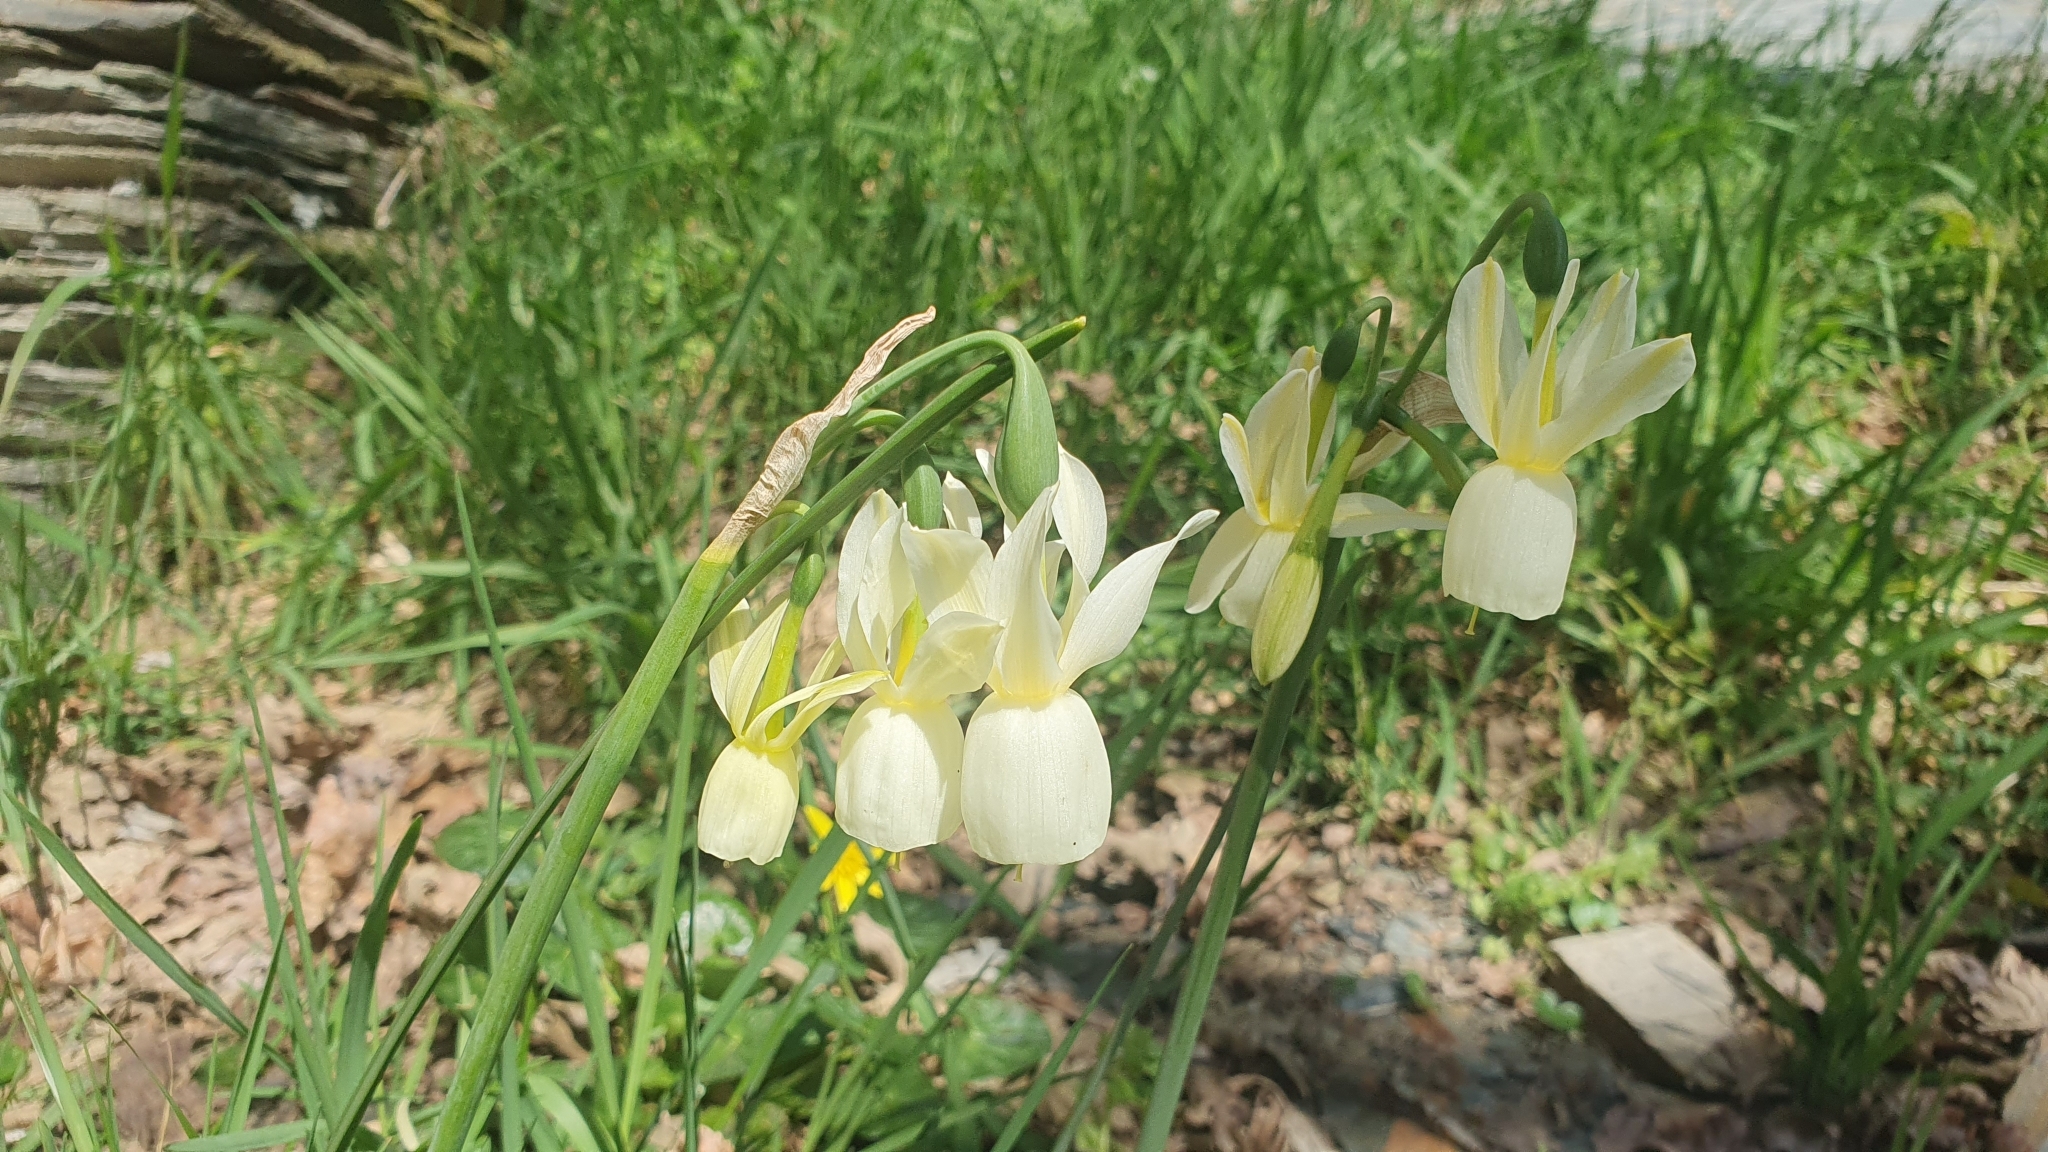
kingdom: Plantae
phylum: Tracheophyta
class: Liliopsida
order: Asparagales
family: Amaryllidaceae
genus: Narcissus
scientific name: Narcissus triandrus
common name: Angel's-tears
